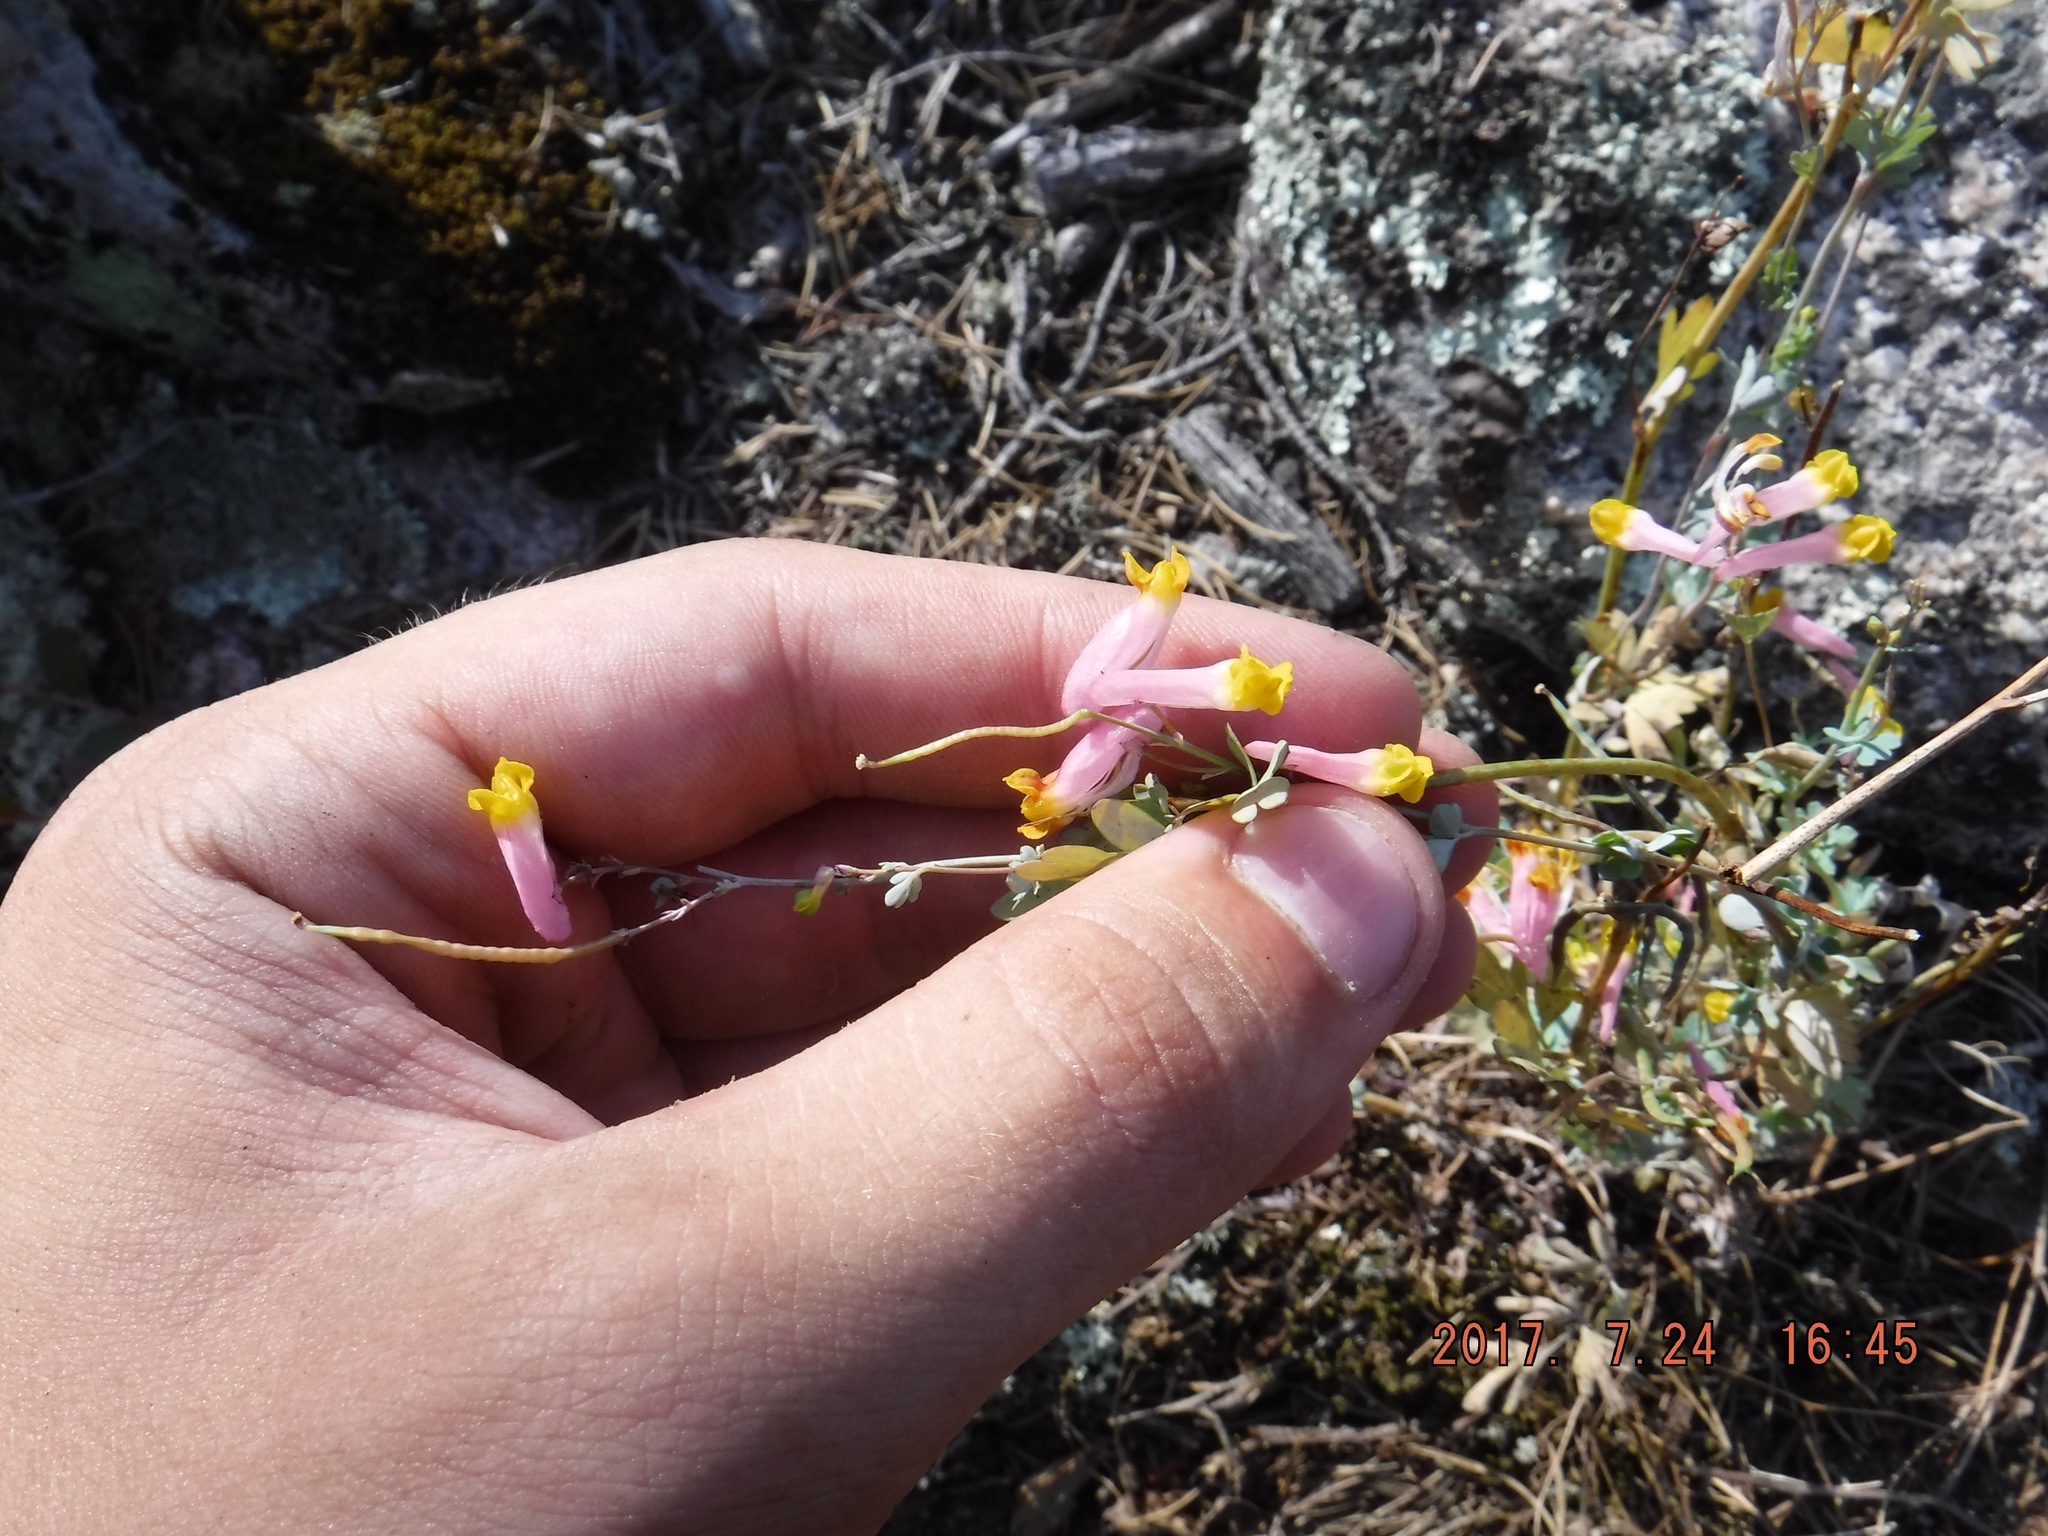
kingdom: Plantae
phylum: Tracheophyta
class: Magnoliopsida
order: Ranunculales
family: Papaveraceae
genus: Capnoides
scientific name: Capnoides sempervirens
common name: Rock harlequin
